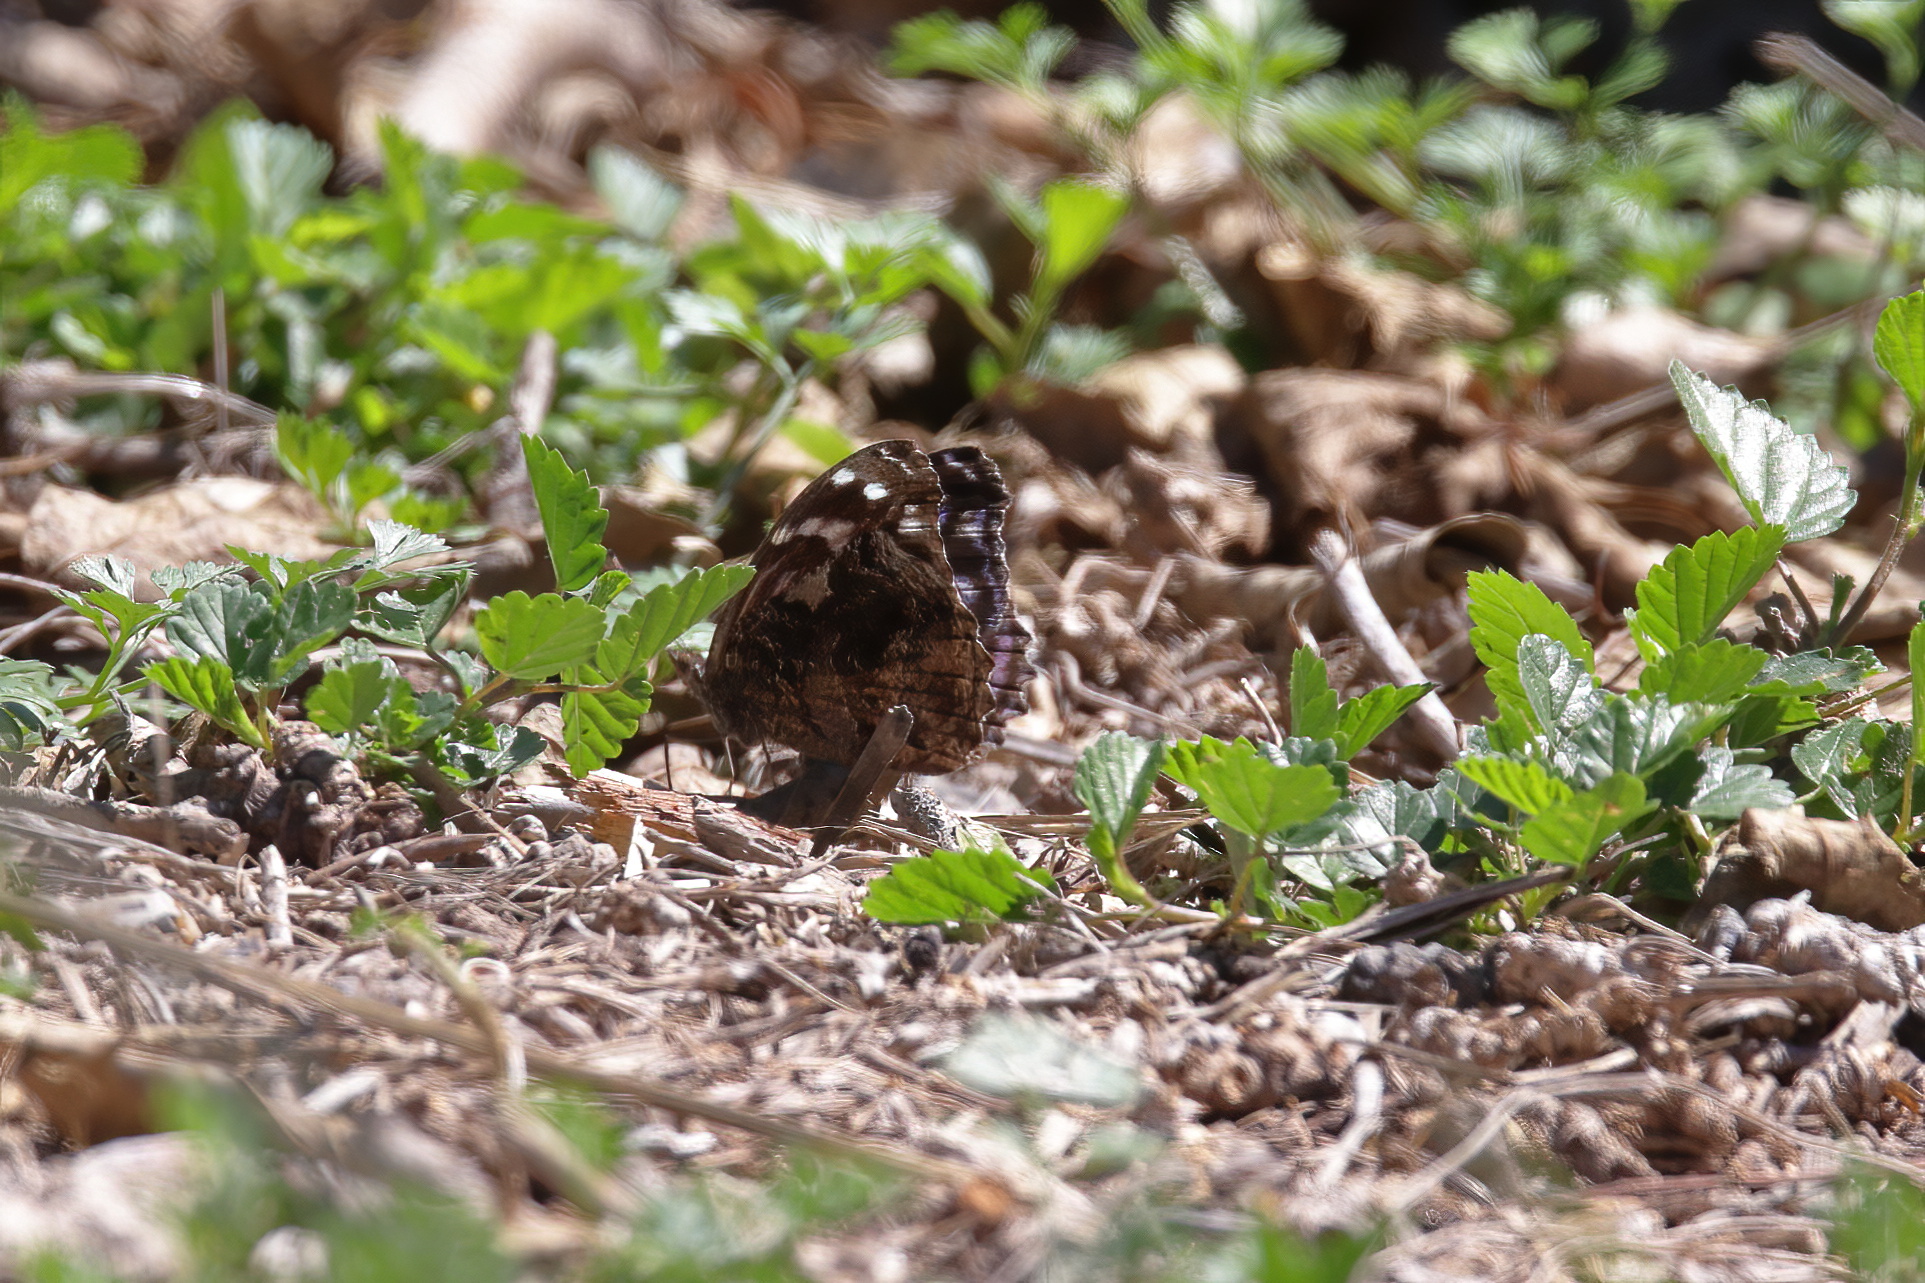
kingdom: Animalia
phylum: Arthropoda
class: Insecta
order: Lepidoptera
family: Nymphalidae
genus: Myscelia
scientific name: Myscelia ethusa
